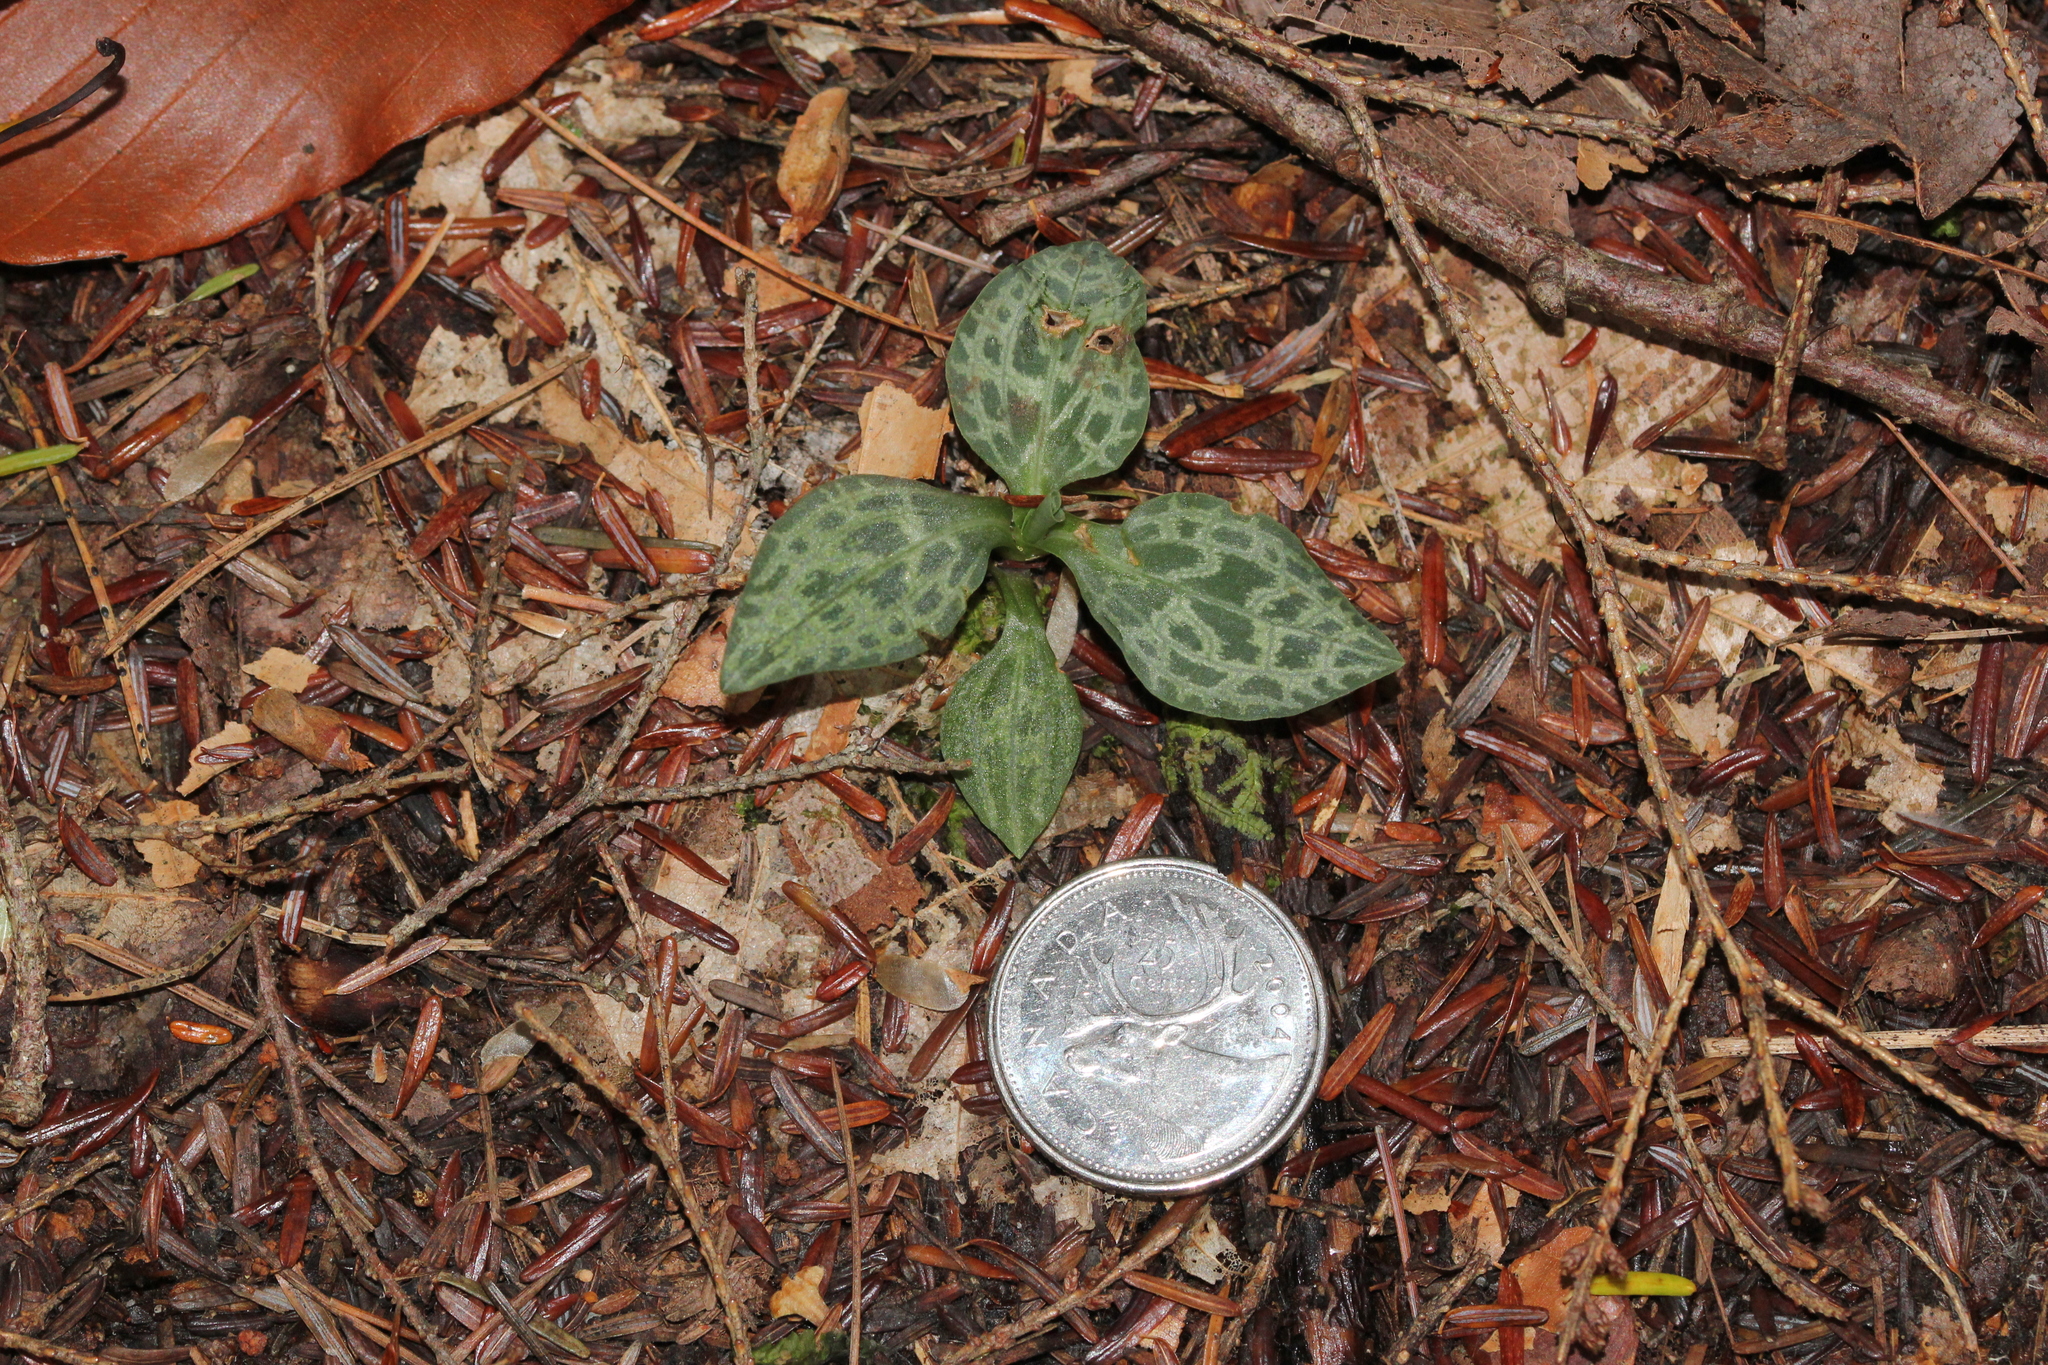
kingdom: Plantae
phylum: Tracheophyta
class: Liliopsida
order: Asparagales
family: Orchidaceae
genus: Goodyera
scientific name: Goodyera repens
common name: Creeping lady's-tresses
